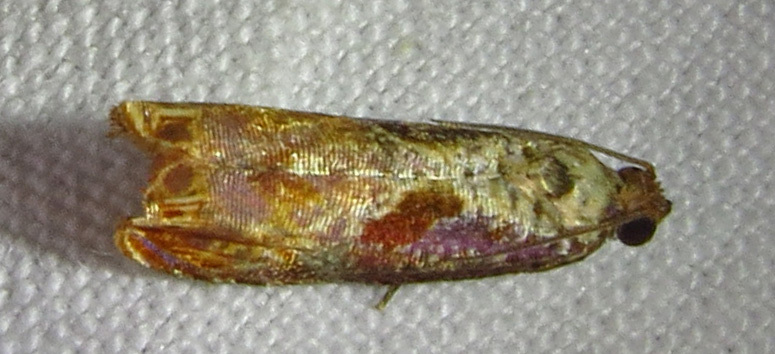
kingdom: Animalia
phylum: Arthropoda
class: Insecta
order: Lepidoptera
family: Tortricidae
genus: Episimus
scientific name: Episimus tyrius
